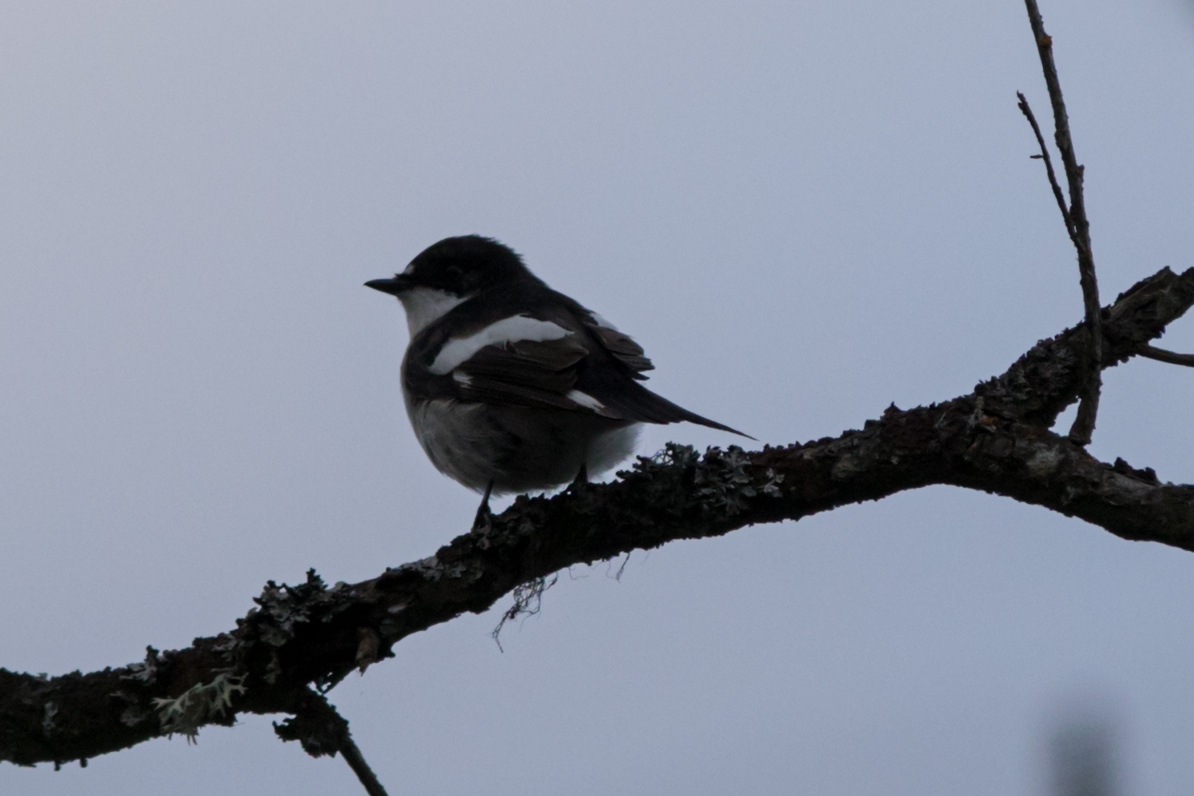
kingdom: Animalia
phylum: Chordata
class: Aves
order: Passeriformes
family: Muscicapidae
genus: Ficedula
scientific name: Ficedula hypoleuca
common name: European pied flycatcher
